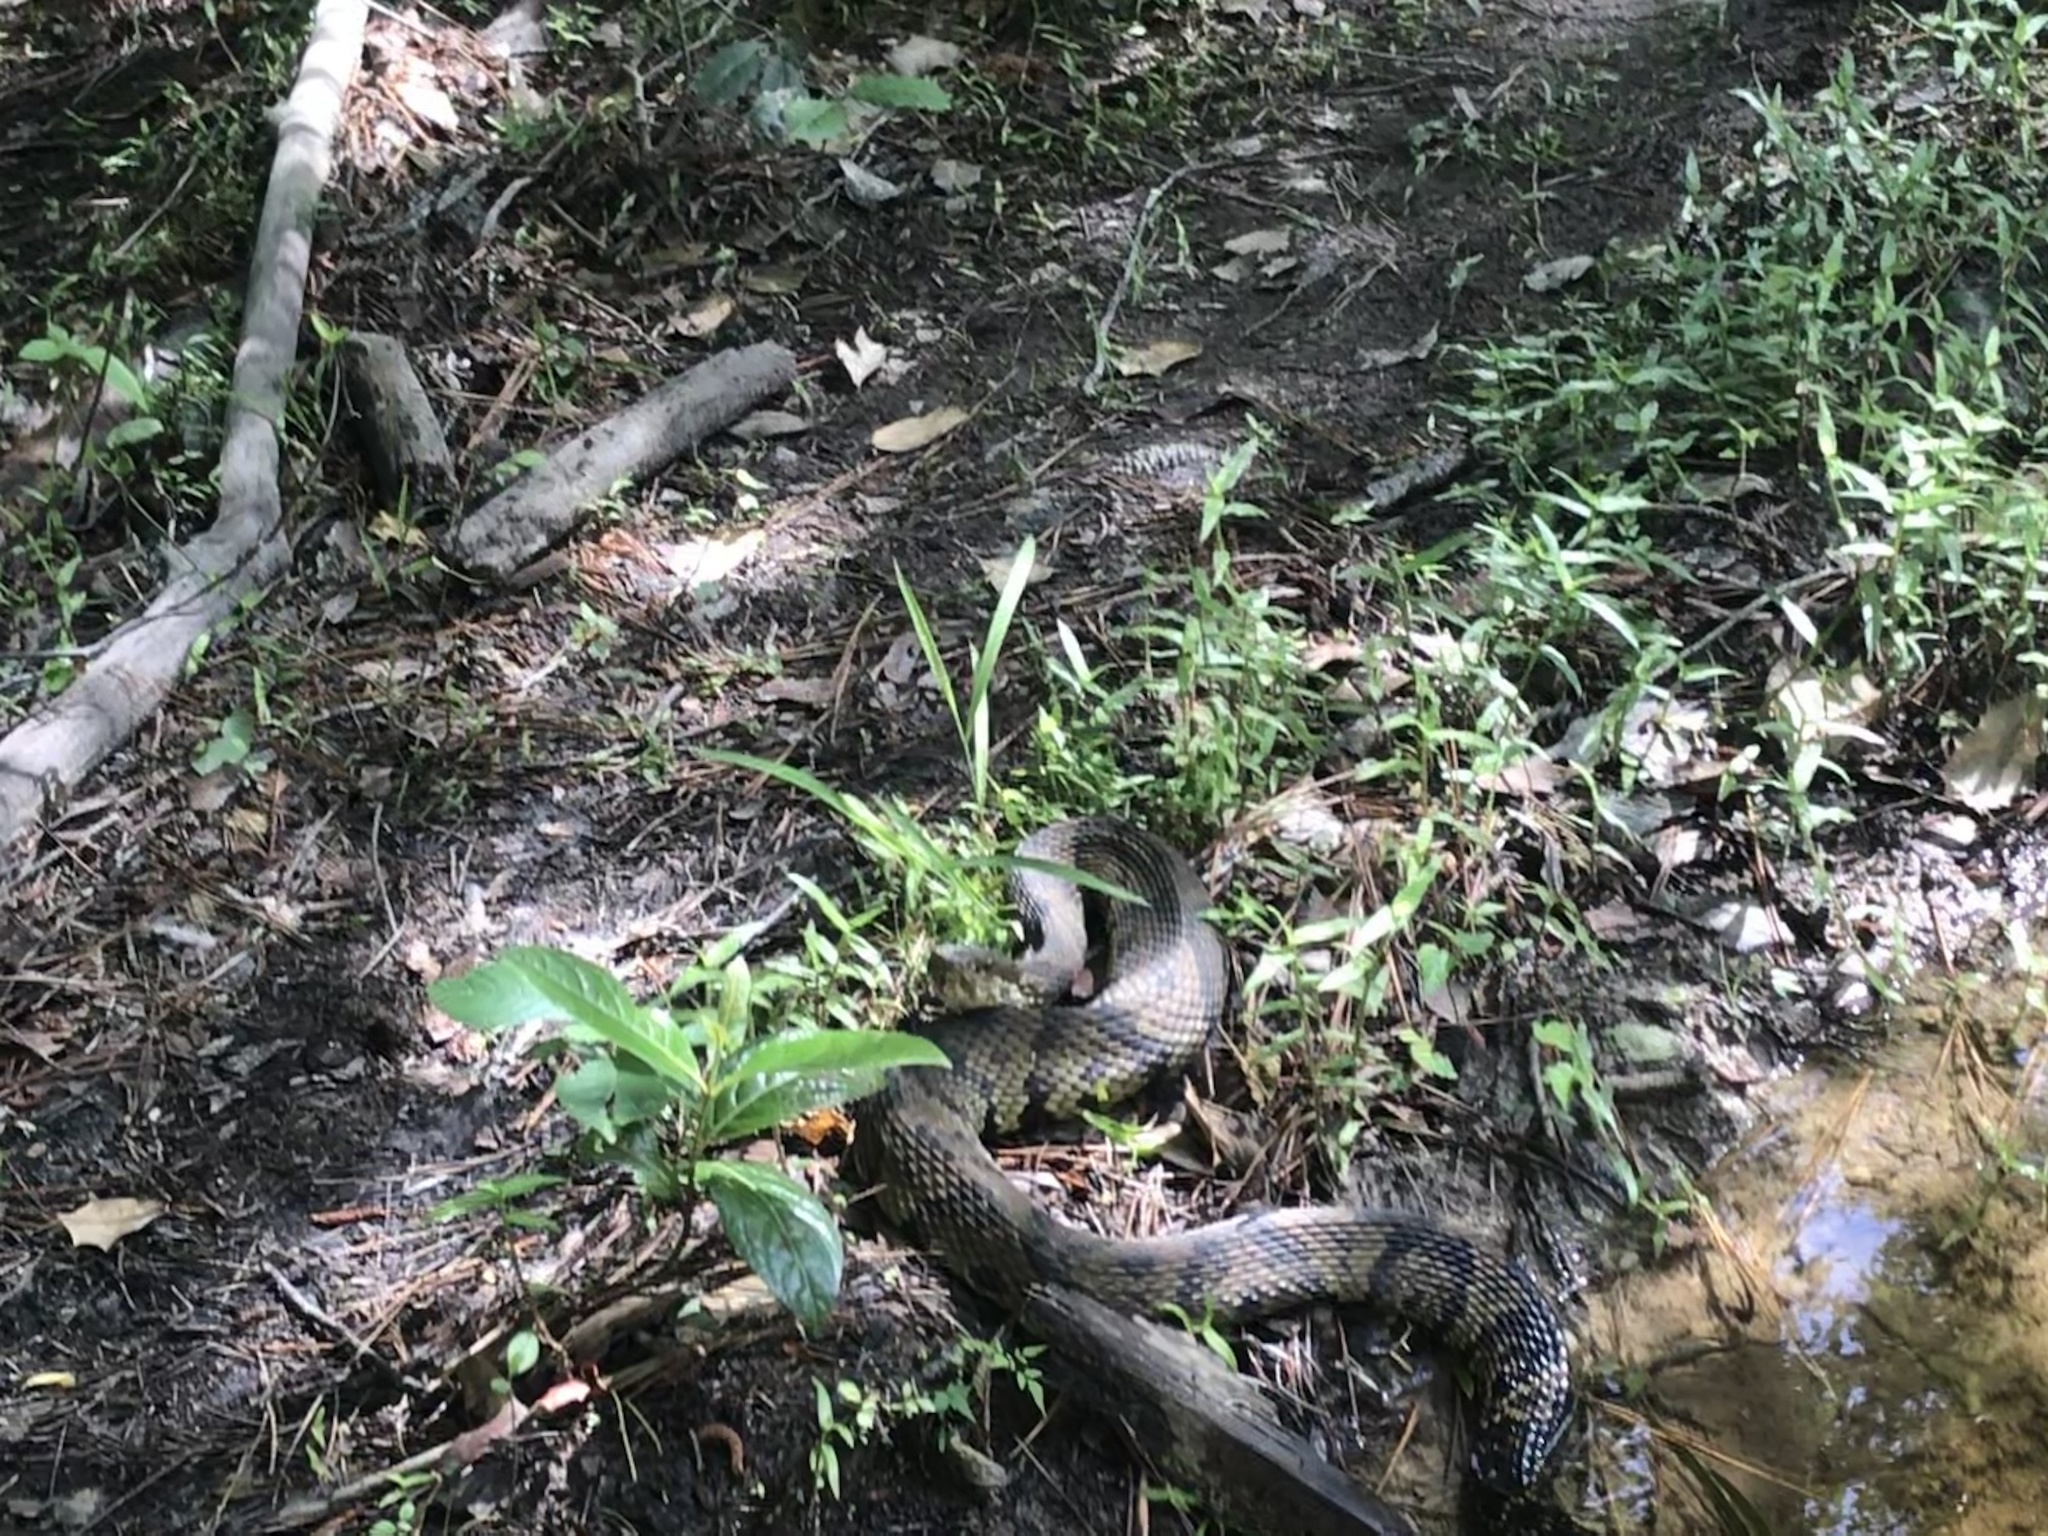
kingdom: Animalia
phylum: Chordata
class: Squamata
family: Viperidae
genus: Agkistrodon
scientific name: Agkistrodon piscivorus
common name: Cottonmouth
